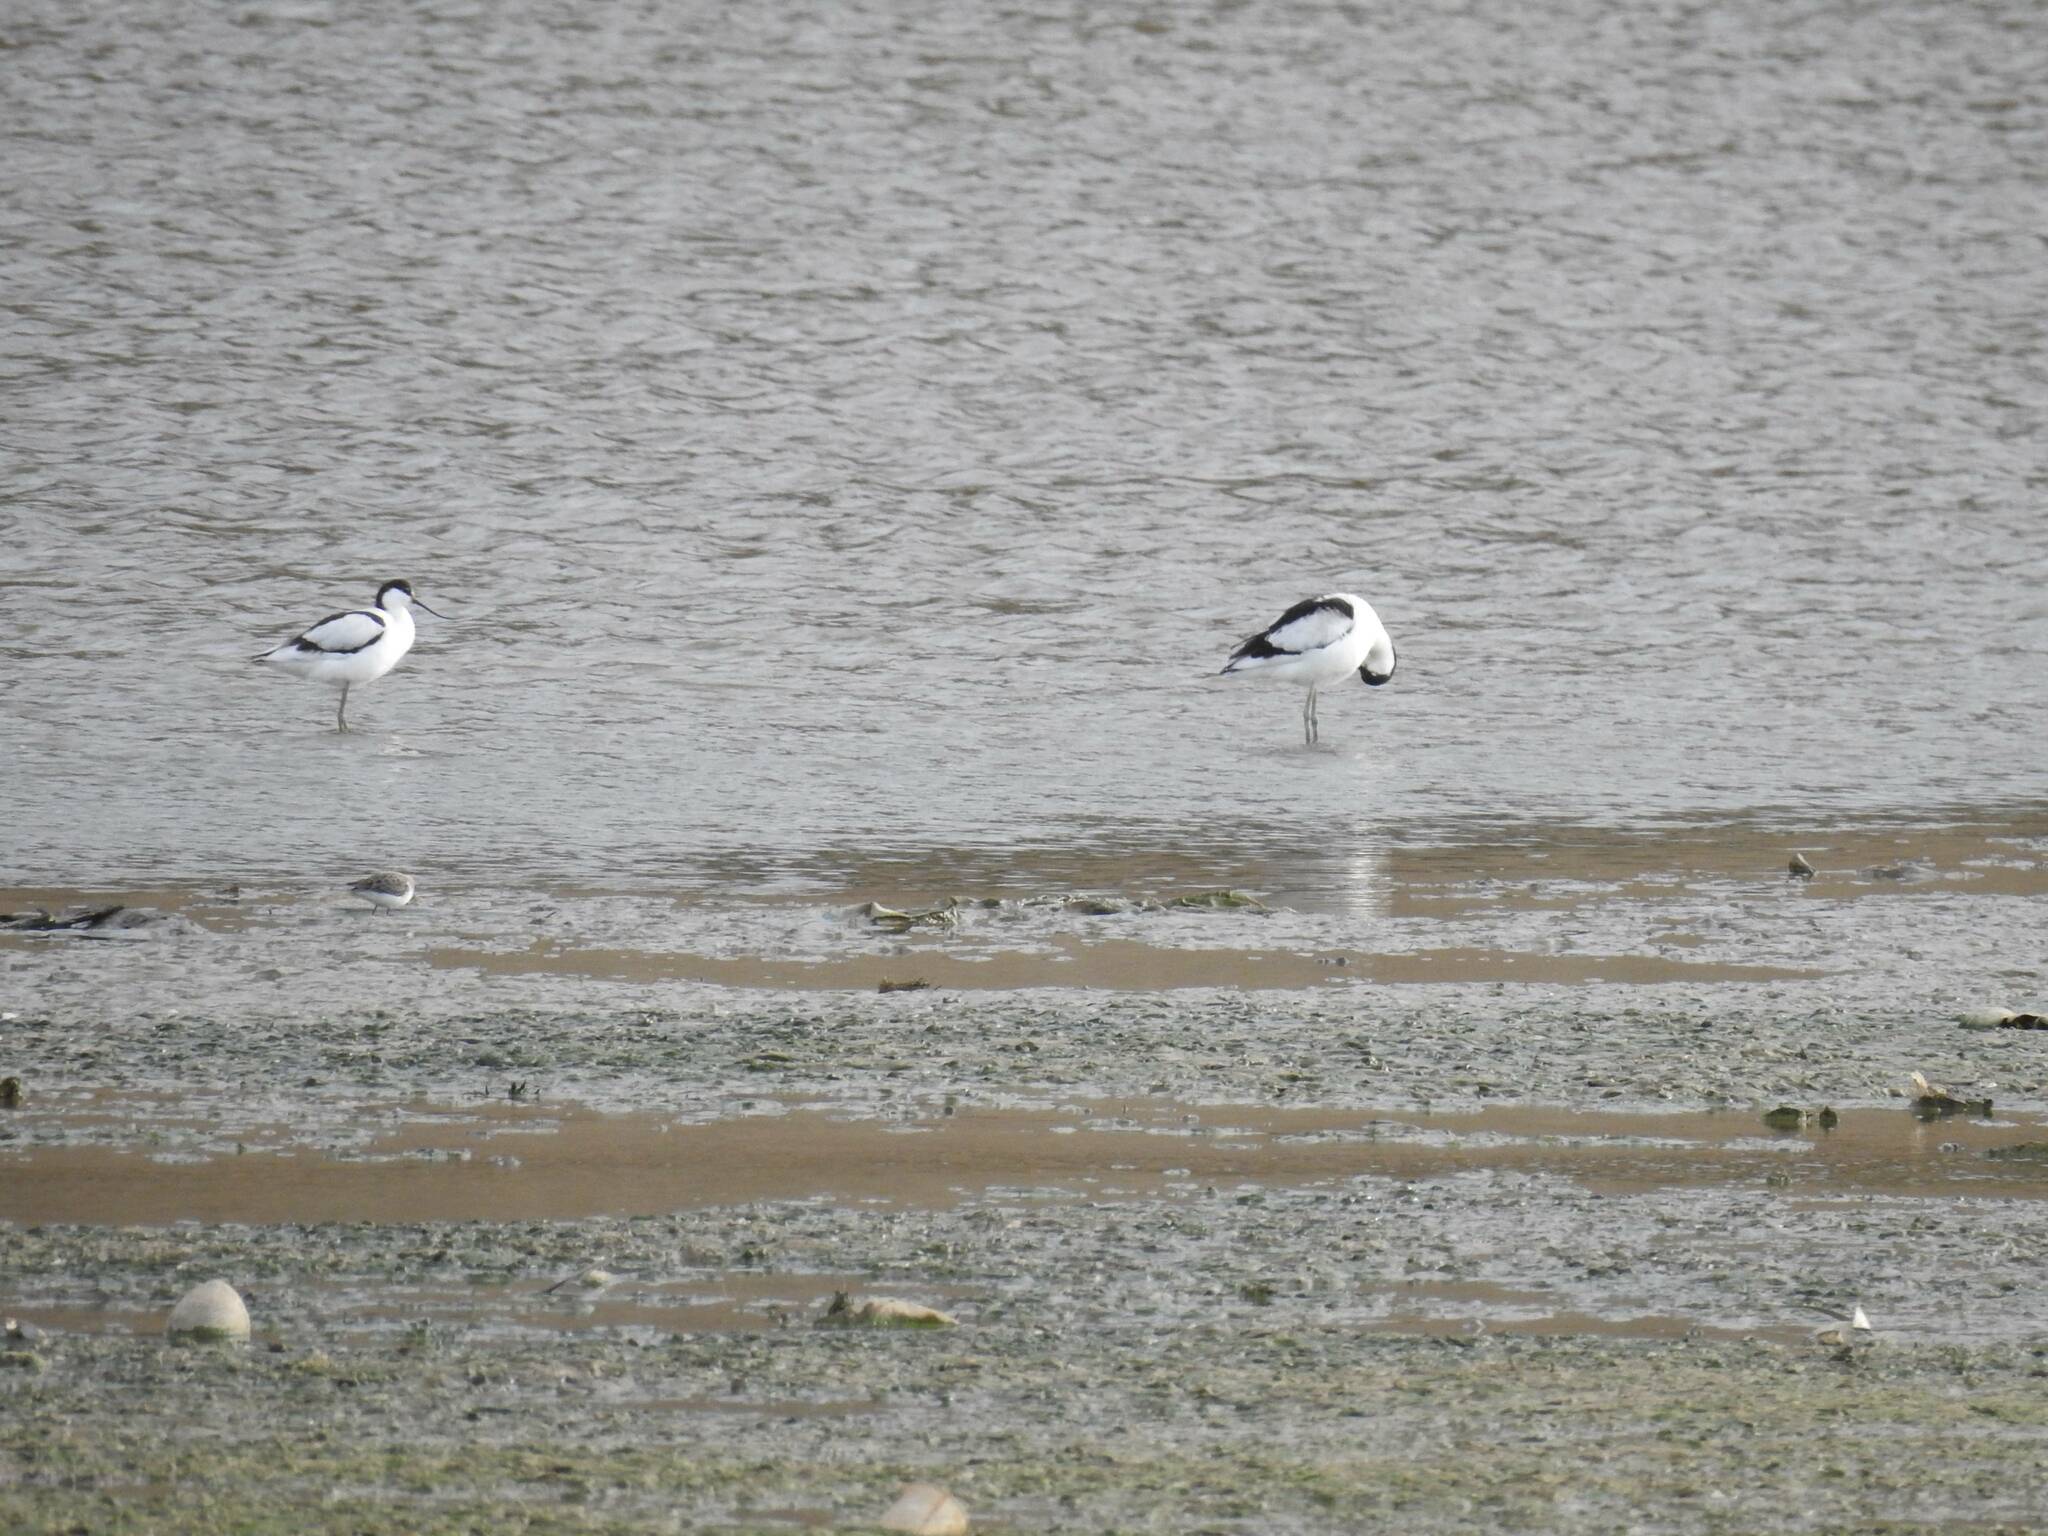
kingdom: Animalia
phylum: Chordata
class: Aves
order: Charadriiformes
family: Recurvirostridae
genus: Recurvirostra
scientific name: Recurvirostra avosetta
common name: Pied avocet
